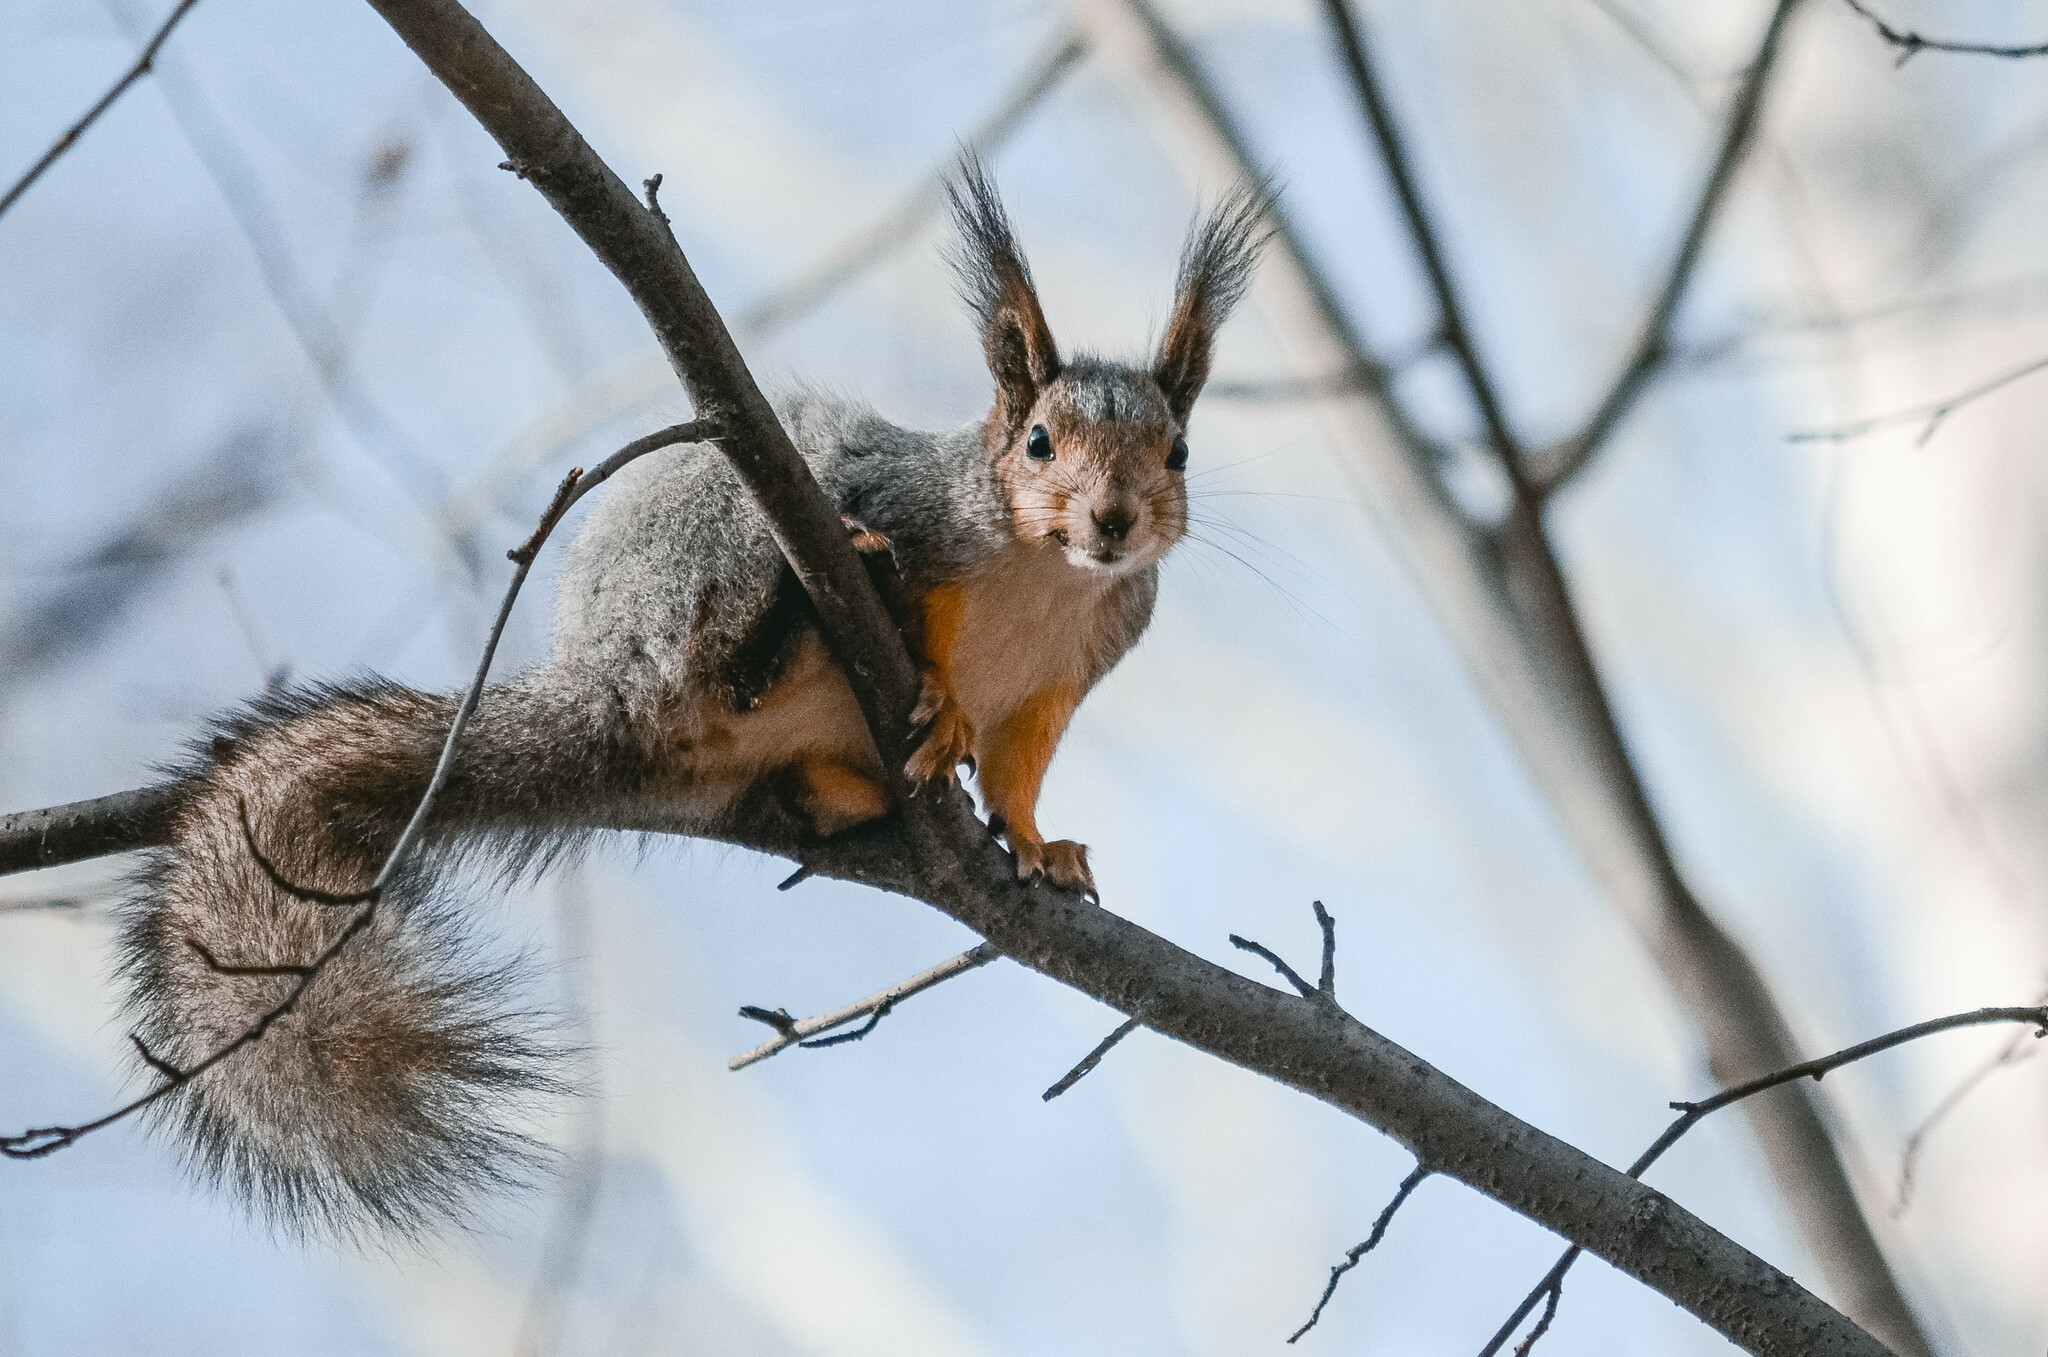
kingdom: Animalia
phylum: Chordata
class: Mammalia
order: Rodentia
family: Sciuridae
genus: Sciurus
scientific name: Sciurus vulgaris
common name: Eurasian red squirrel
